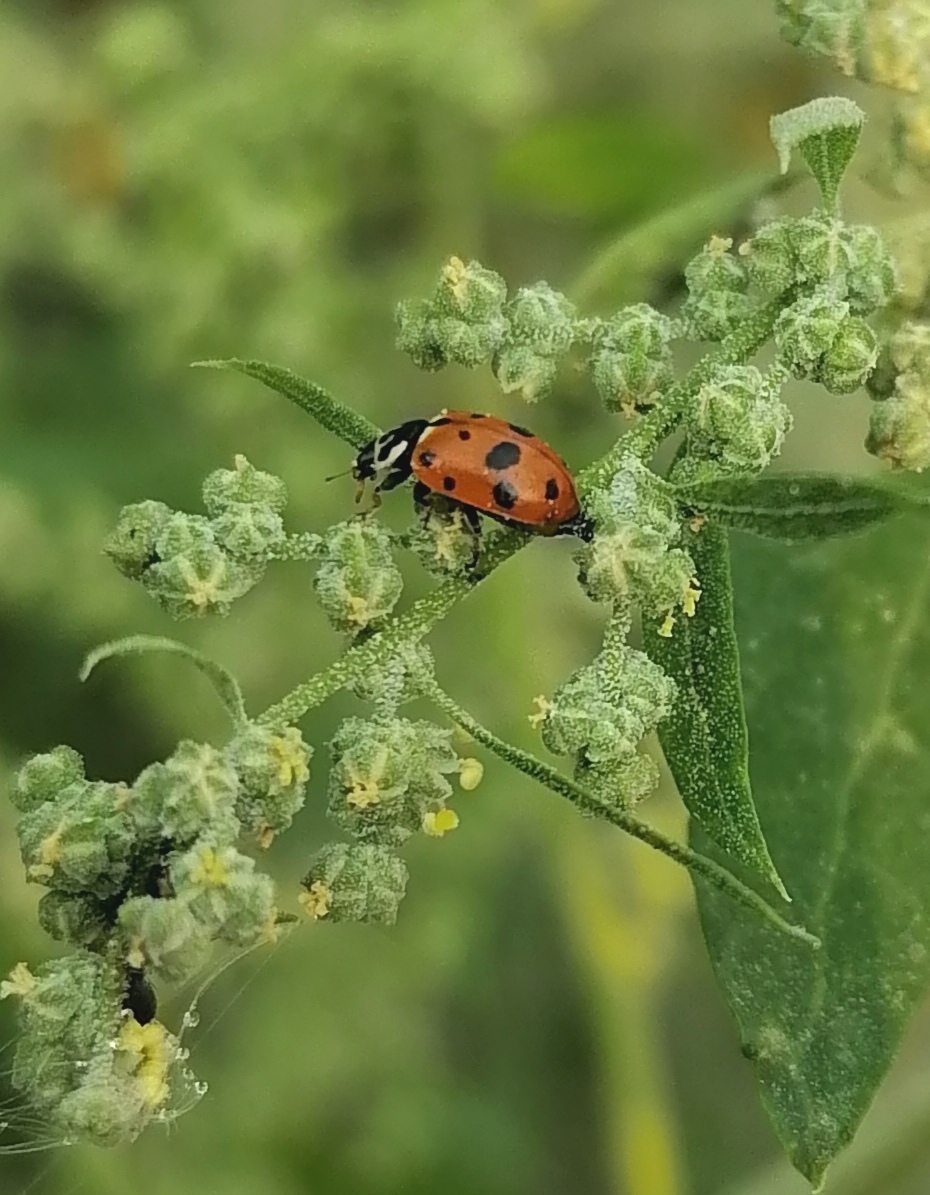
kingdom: Animalia
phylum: Arthropoda
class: Insecta
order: Coleoptera
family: Coccinellidae
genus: Hippodamia
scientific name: Hippodamia variegata
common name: Ladybird beetle
